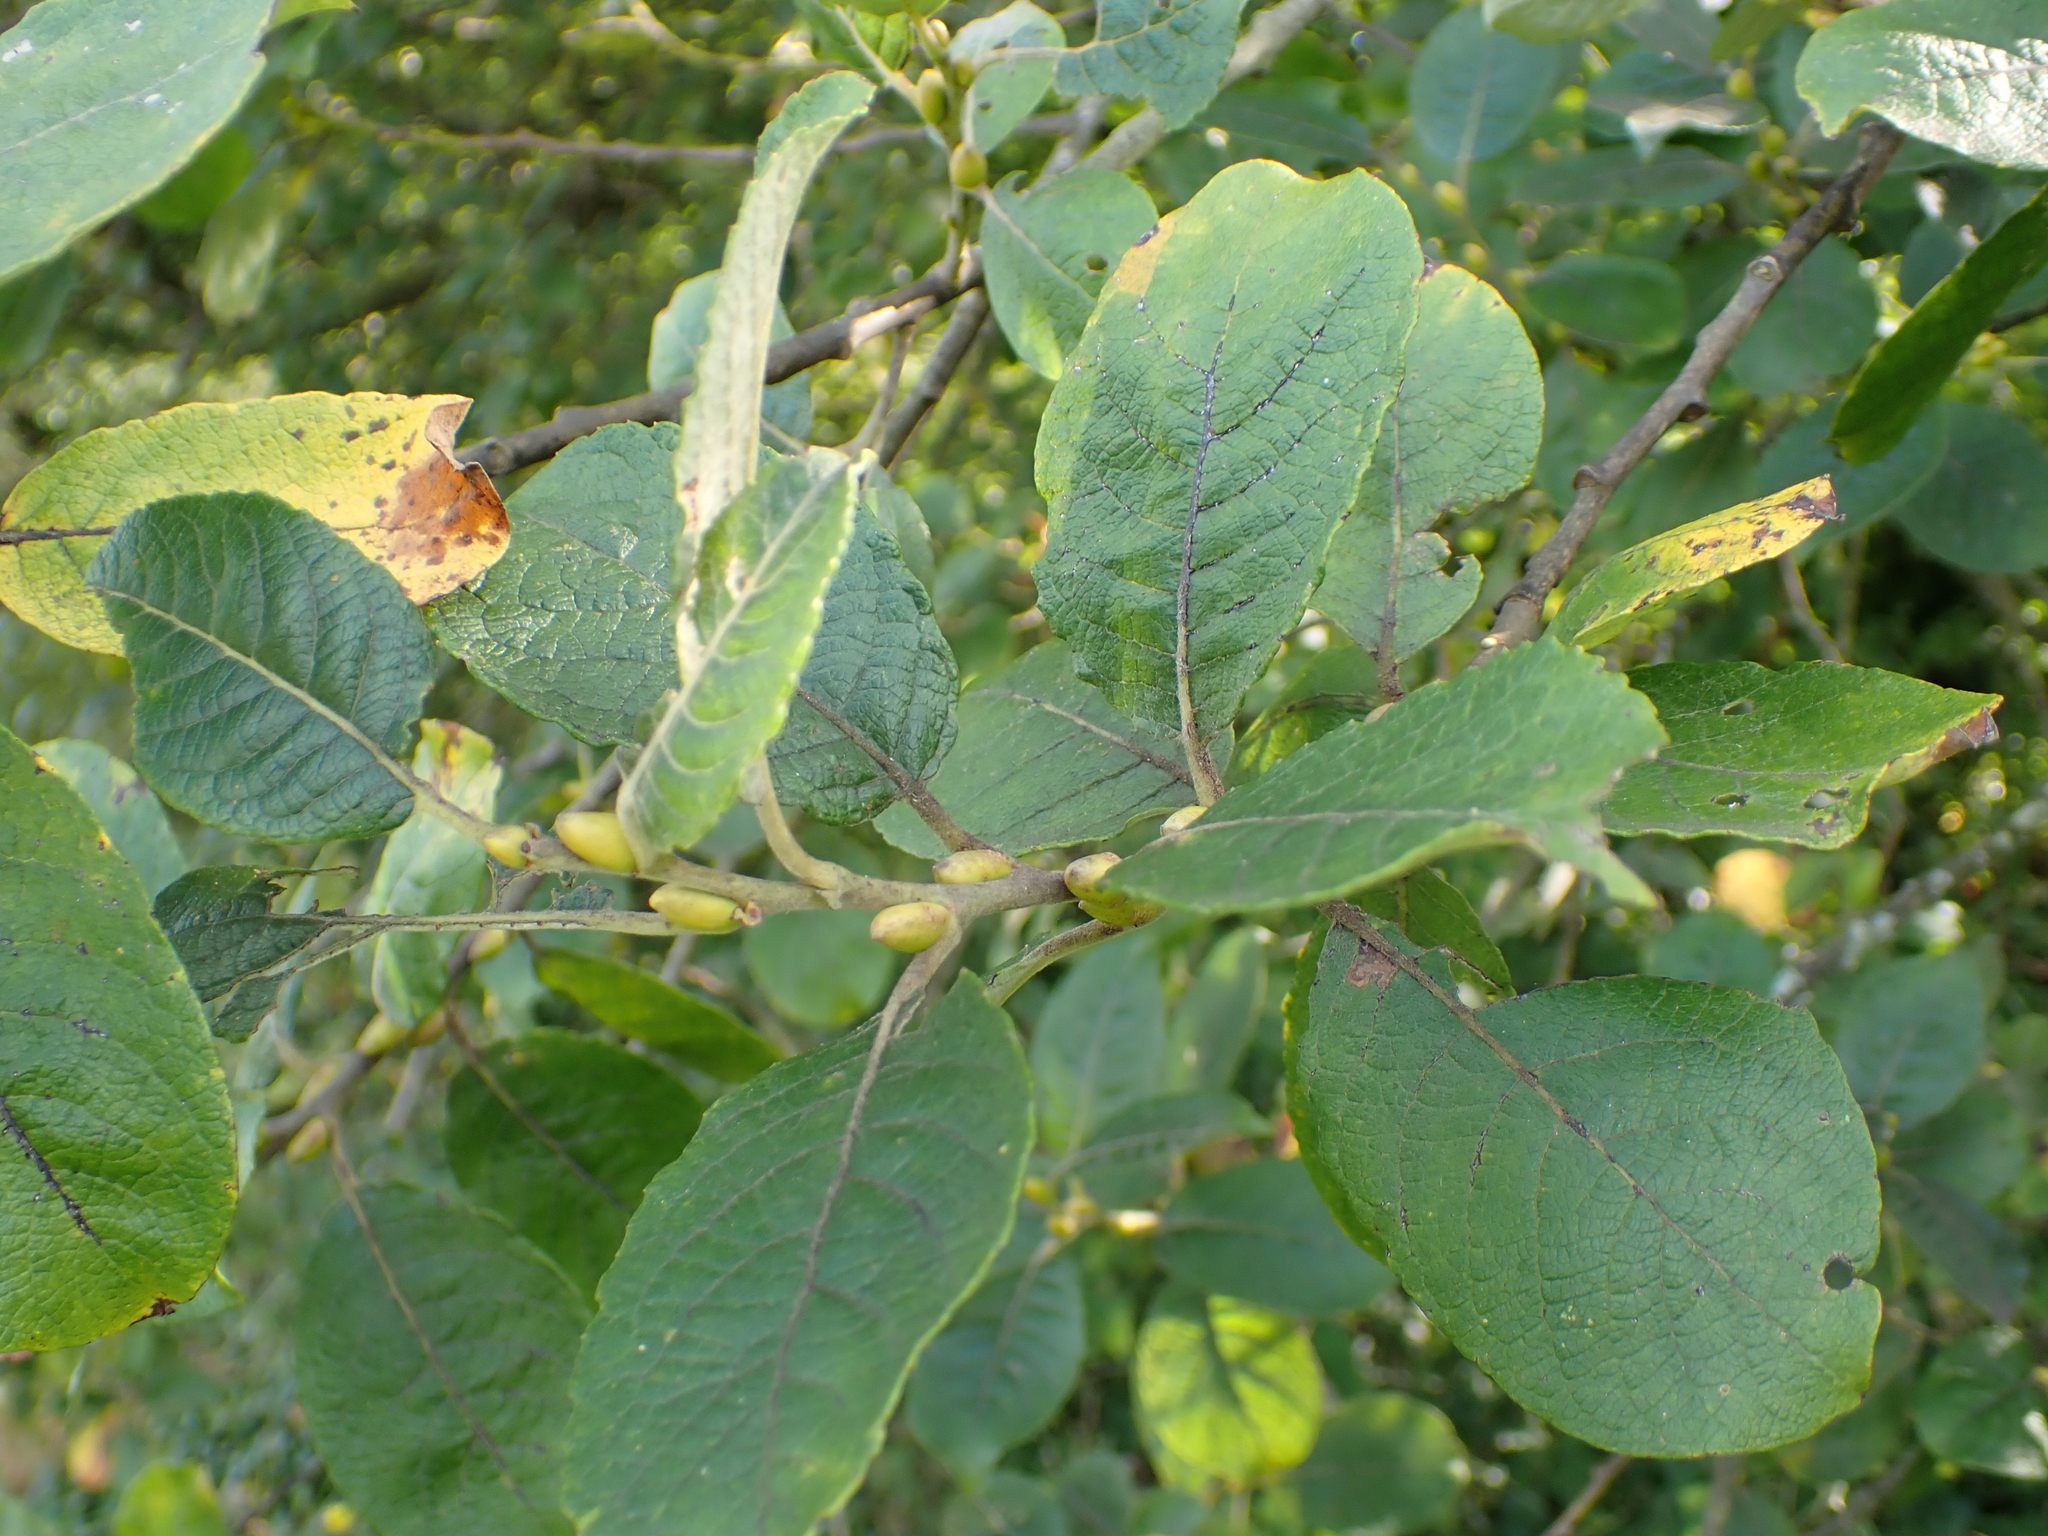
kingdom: Plantae
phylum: Tracheophyta
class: Magnoliopsida
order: Malpighiales
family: Salicaceae
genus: Salix
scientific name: Salix caprea
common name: Goat willow
